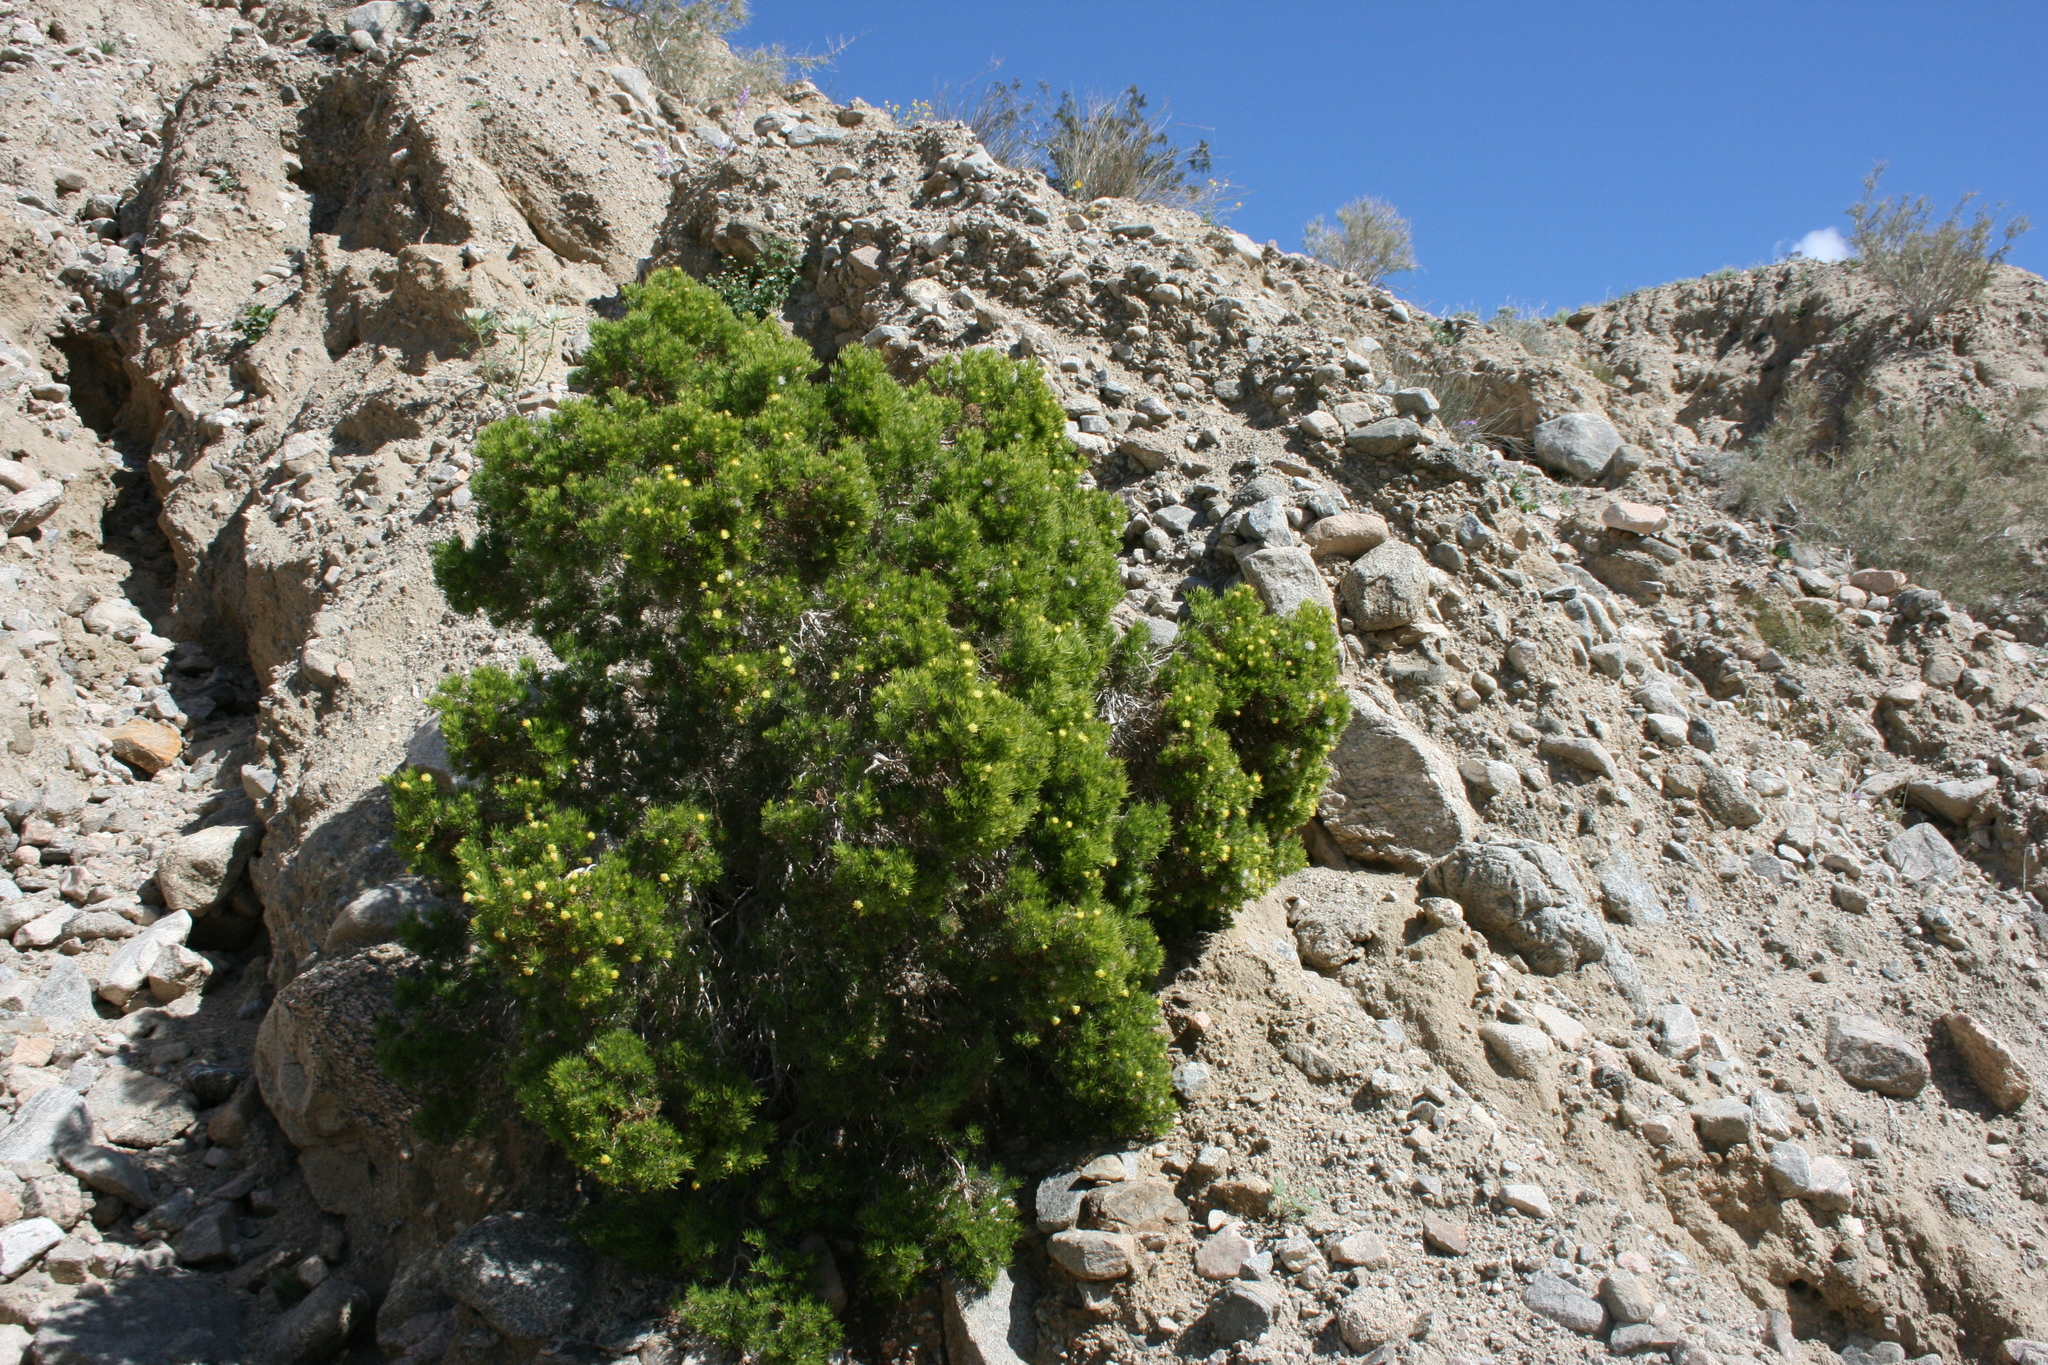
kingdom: Plantae
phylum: Tracheophyta
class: Magnoliopsida
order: Asterales
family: Asteraceae
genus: Peucephyllum
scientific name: Peucephyllum schottii
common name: Pygmy-cedar
